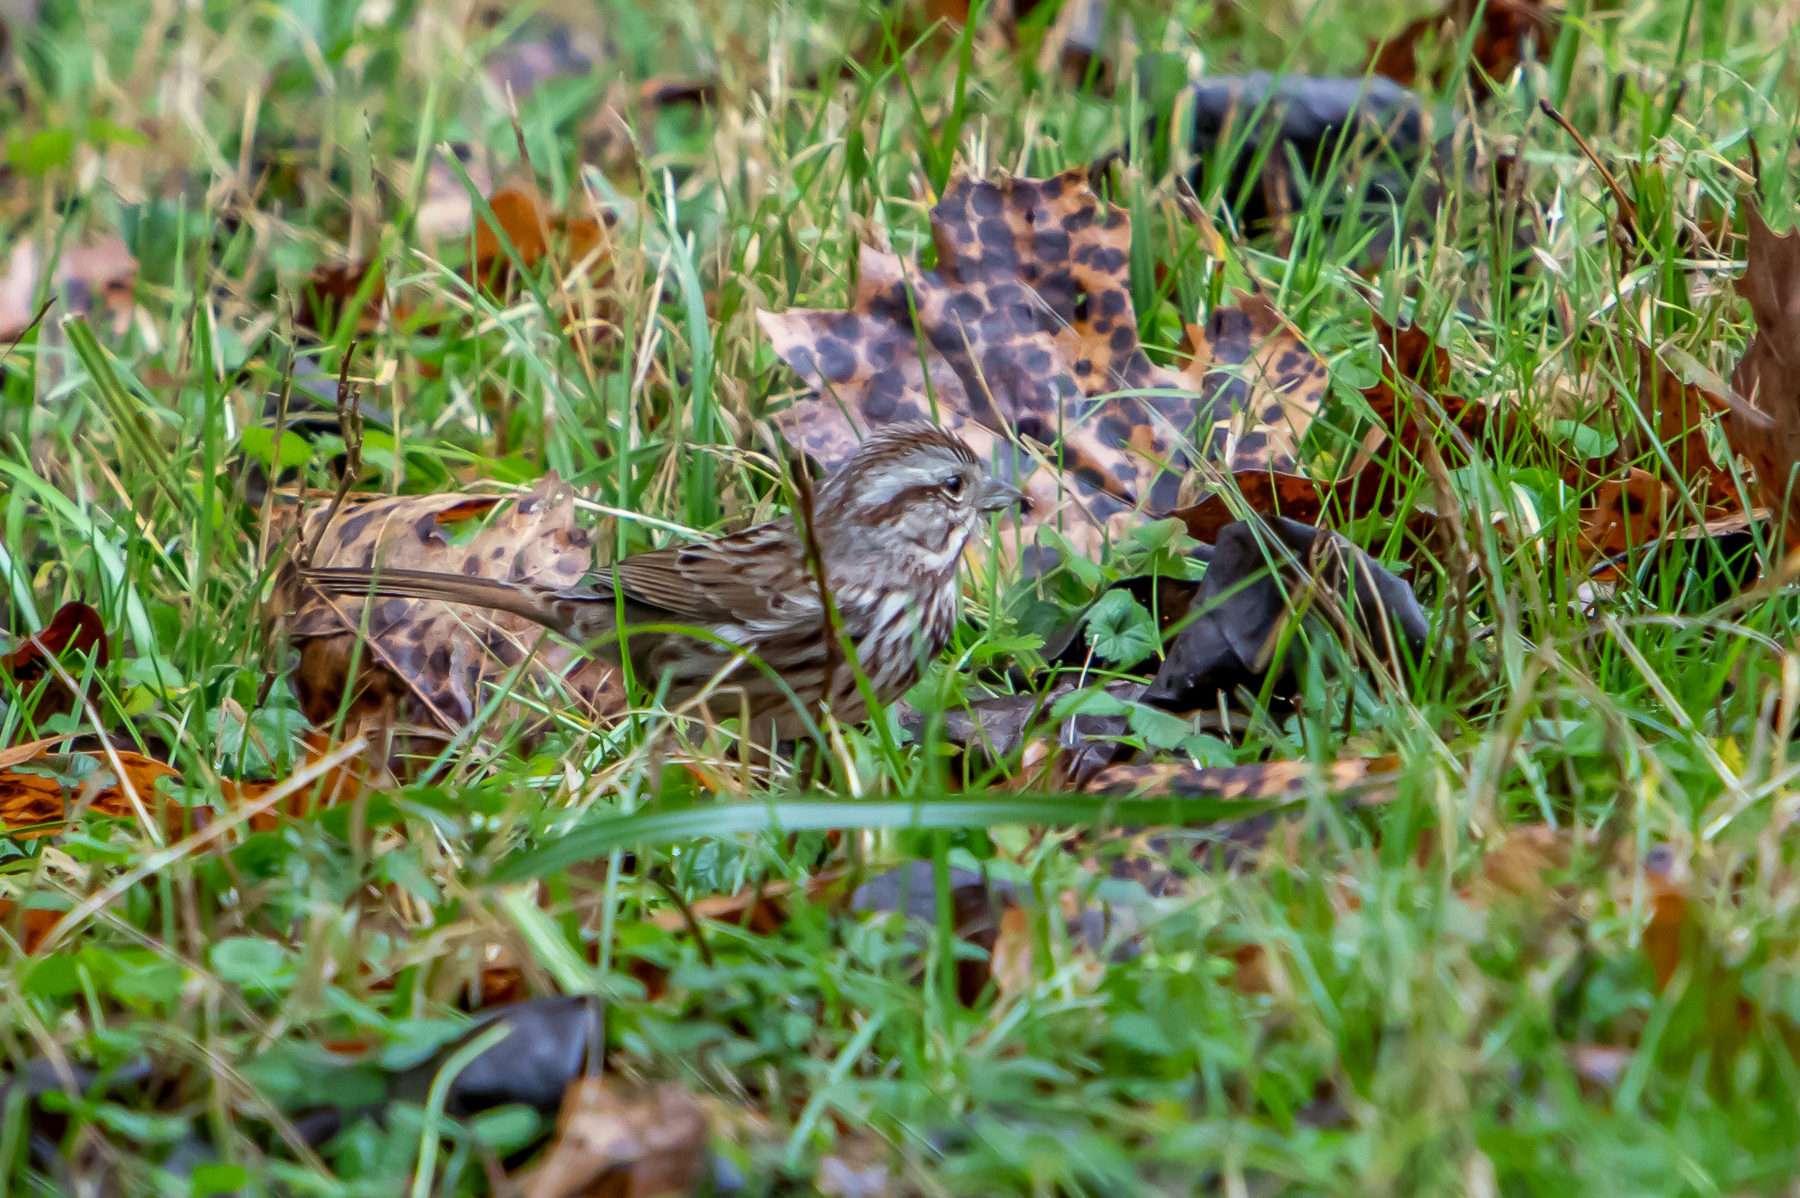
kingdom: Animalia
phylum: Chordata
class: Aves
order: Passeriformes
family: Passerellidae
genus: Melospiza
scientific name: Melospiza melodia
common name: Song sparrow
